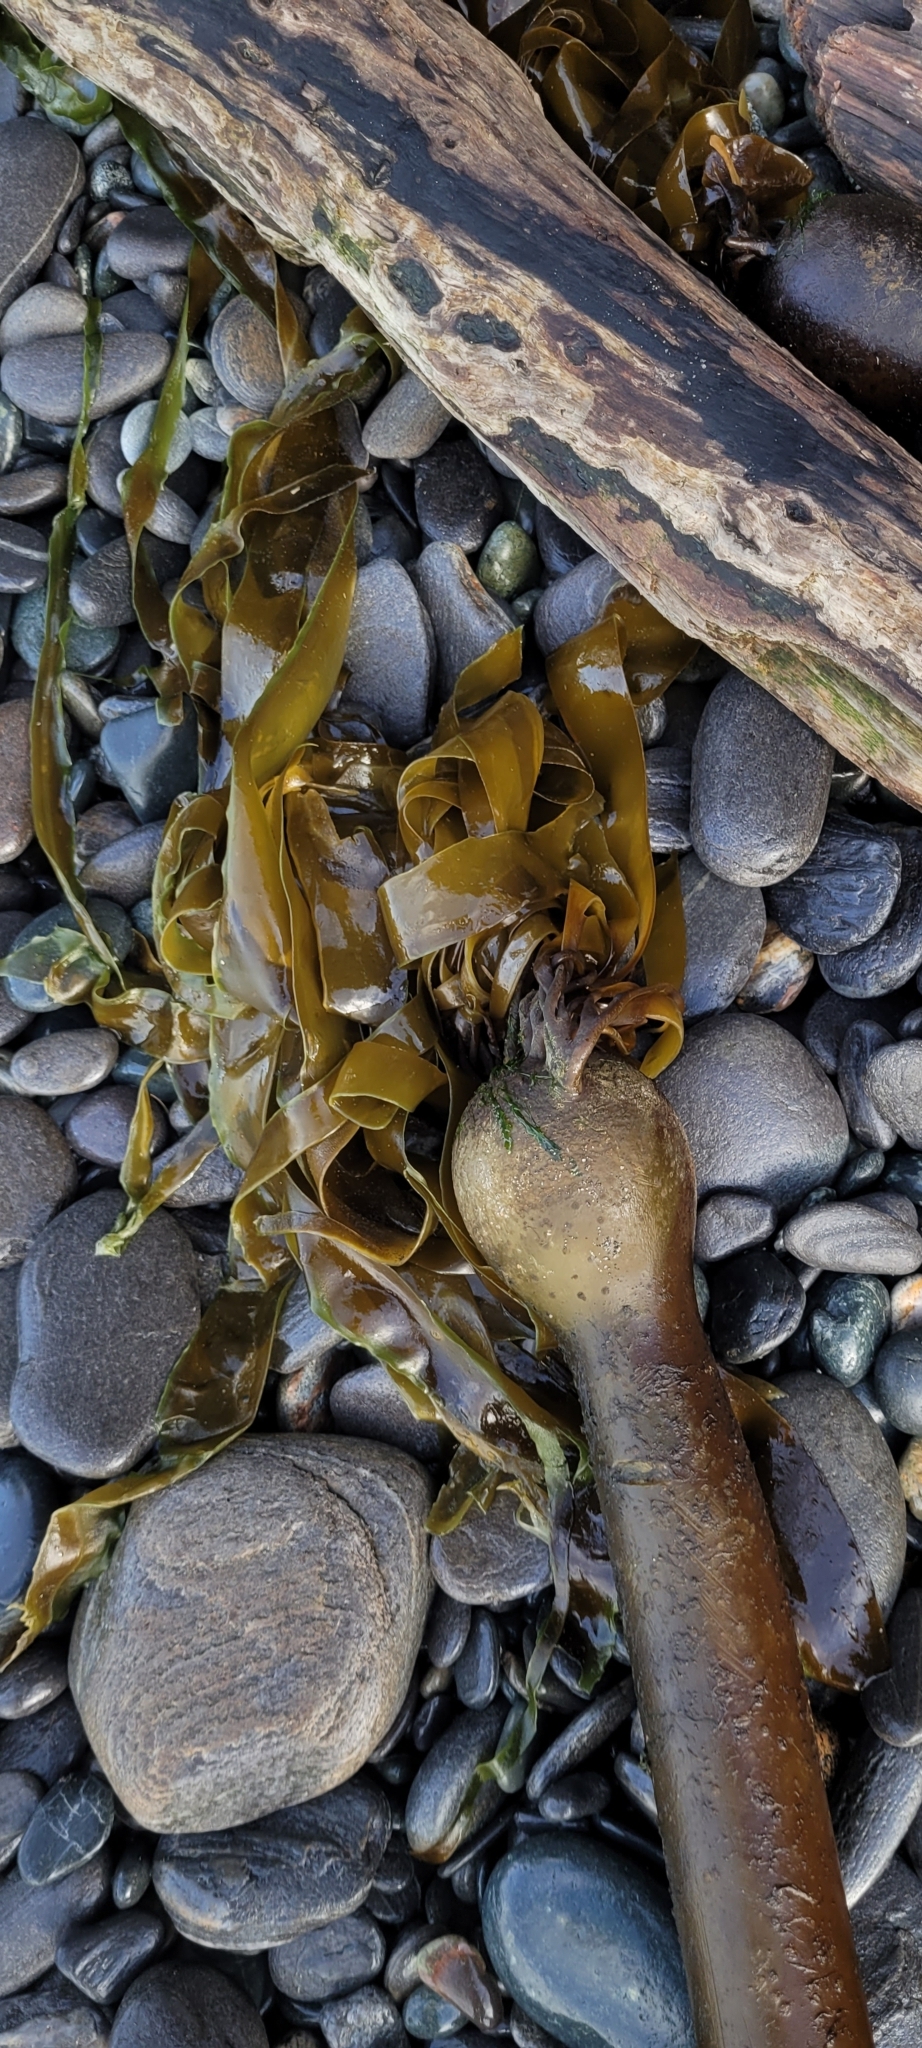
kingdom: Chromista
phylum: Ochrophyta
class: Phaeophyceae
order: Laminariales
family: Laminariaceae
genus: Nereocystis
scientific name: Nereocystis luetkeana
